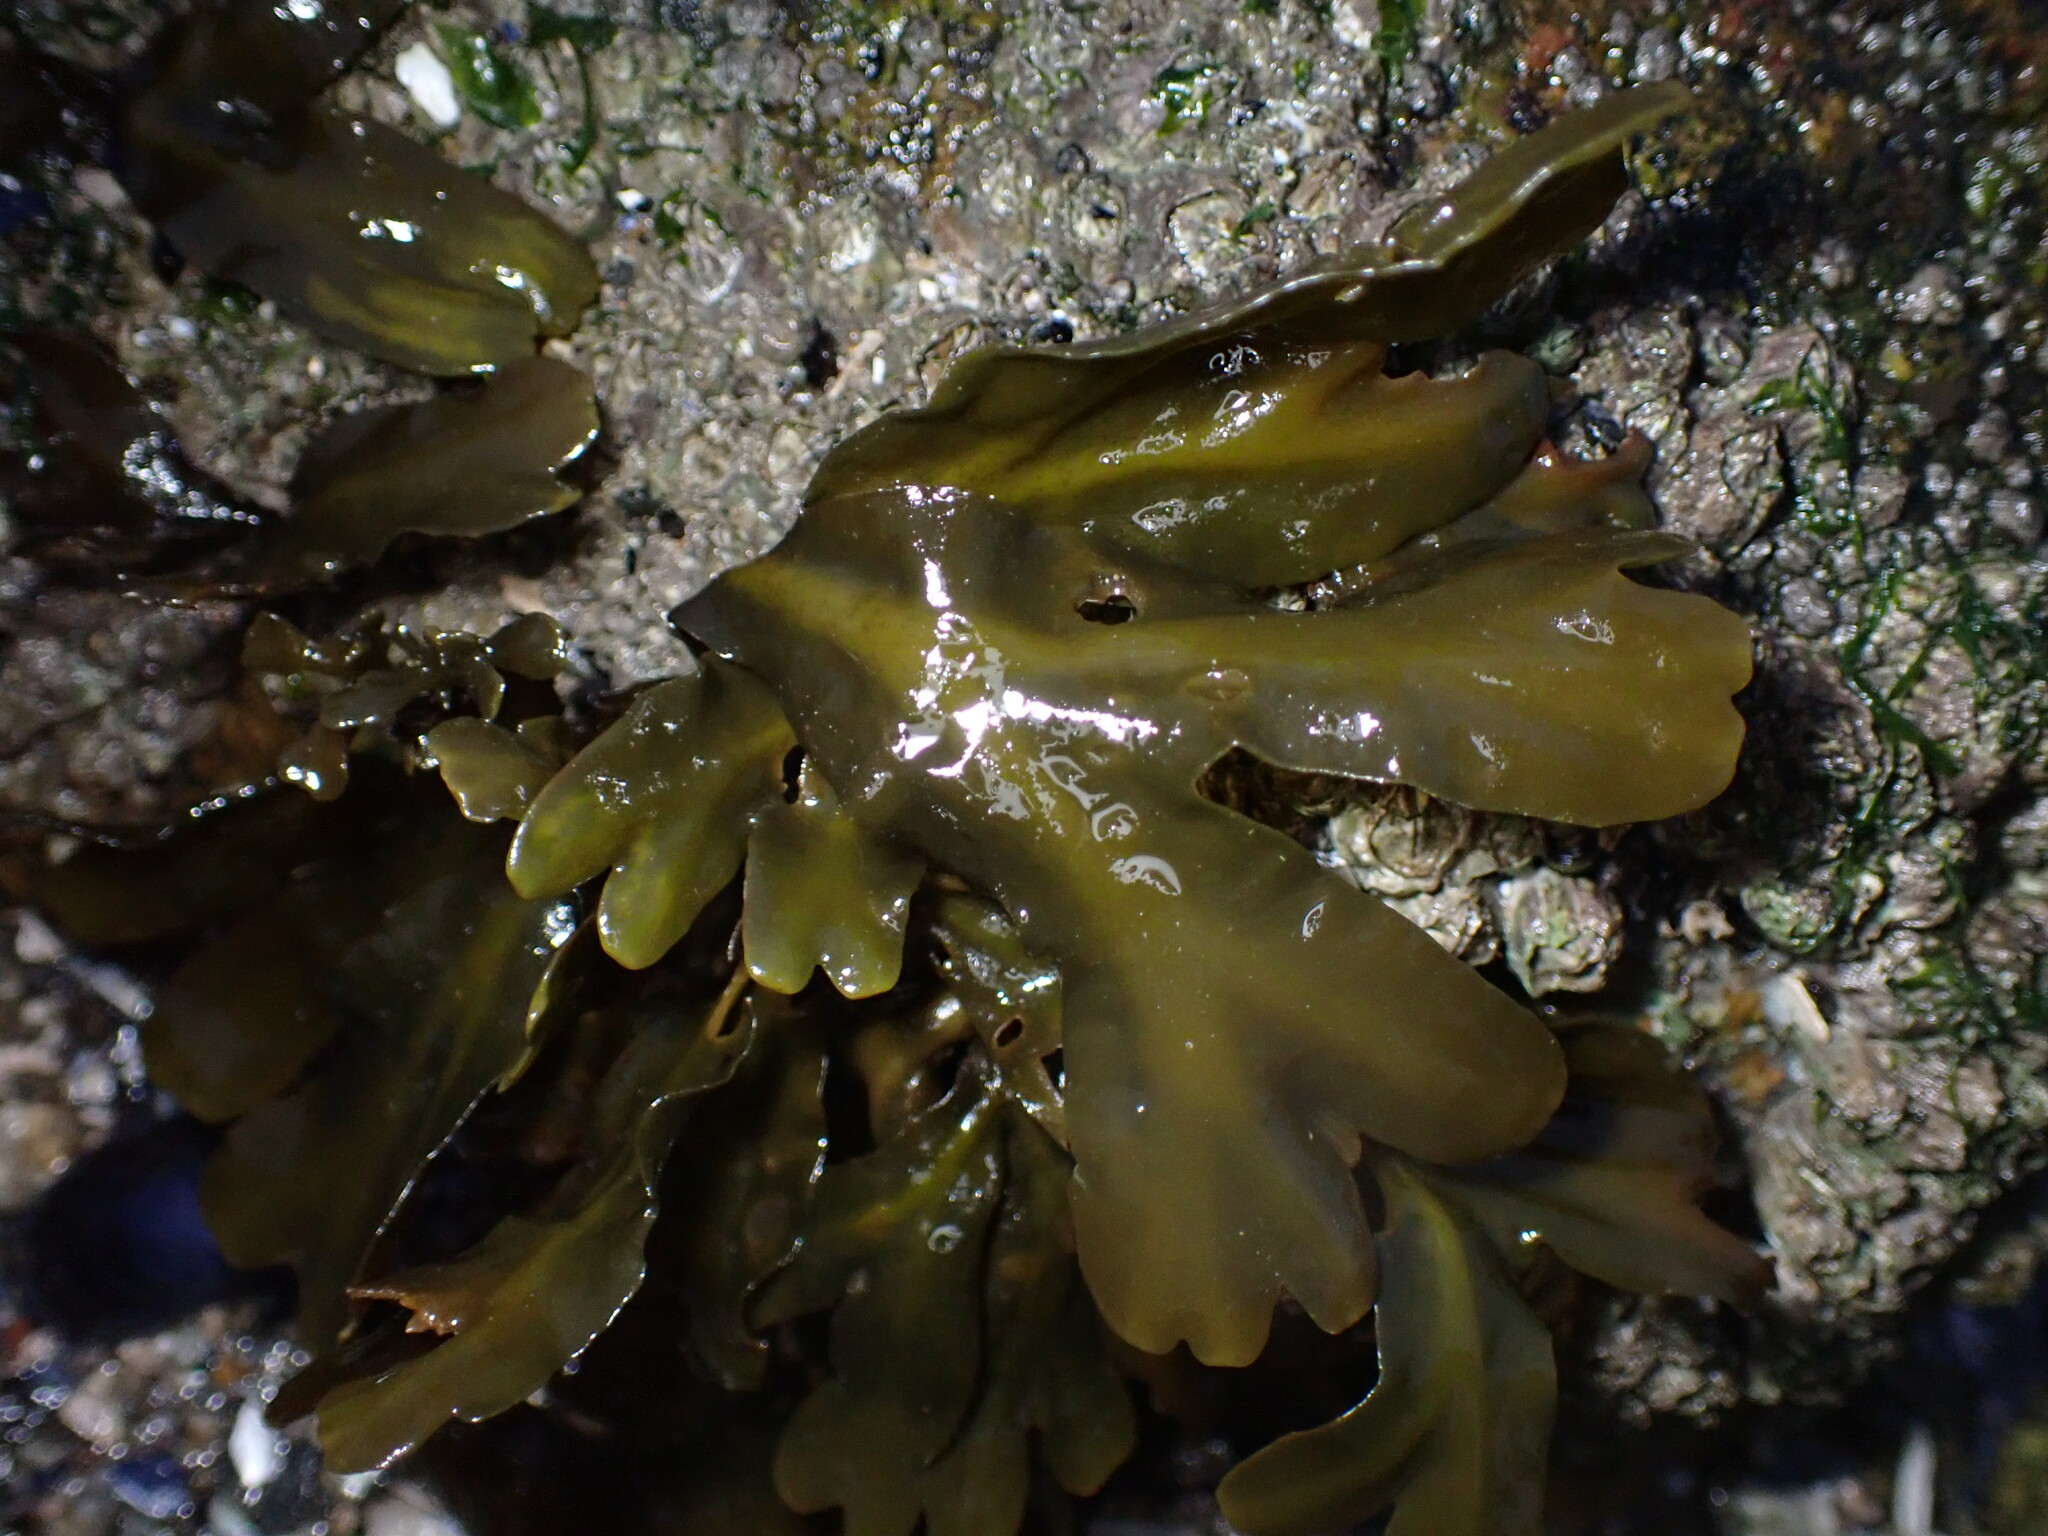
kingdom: Chromista
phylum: Ochrophyta
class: Phaeophyceae
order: Fucales
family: Fucaceae
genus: Fucus
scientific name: Fucus distichus
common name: Rockweed
